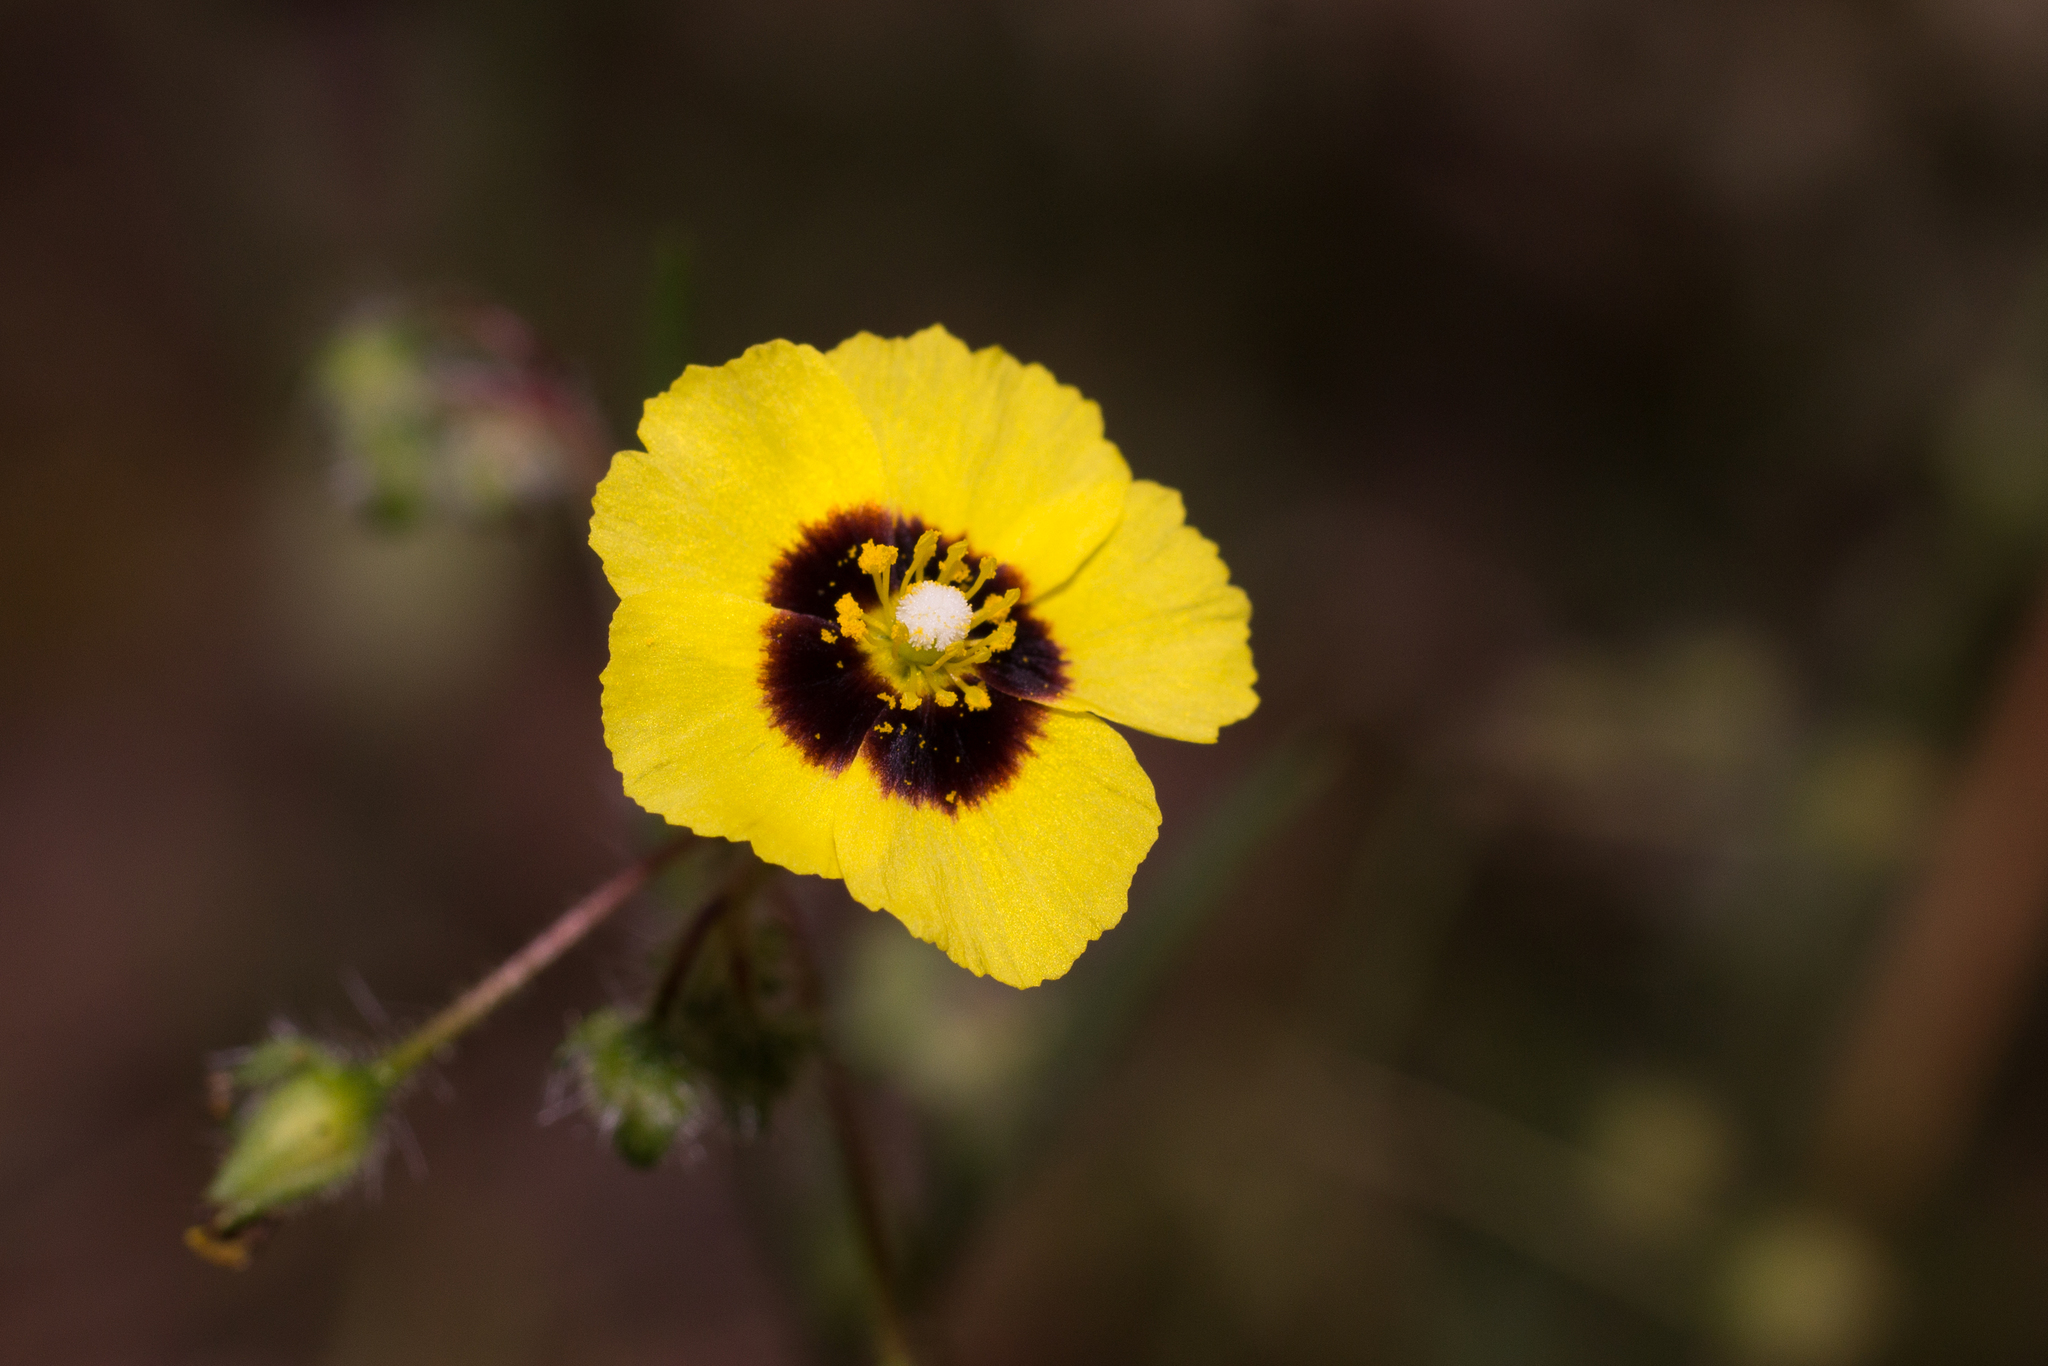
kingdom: Plantae
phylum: Tracheophyta
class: Magnoliopsida
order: Malvales
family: Cistaceae
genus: Tuberaria
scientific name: Tuberaria guttata
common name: Spotted rock-rose
